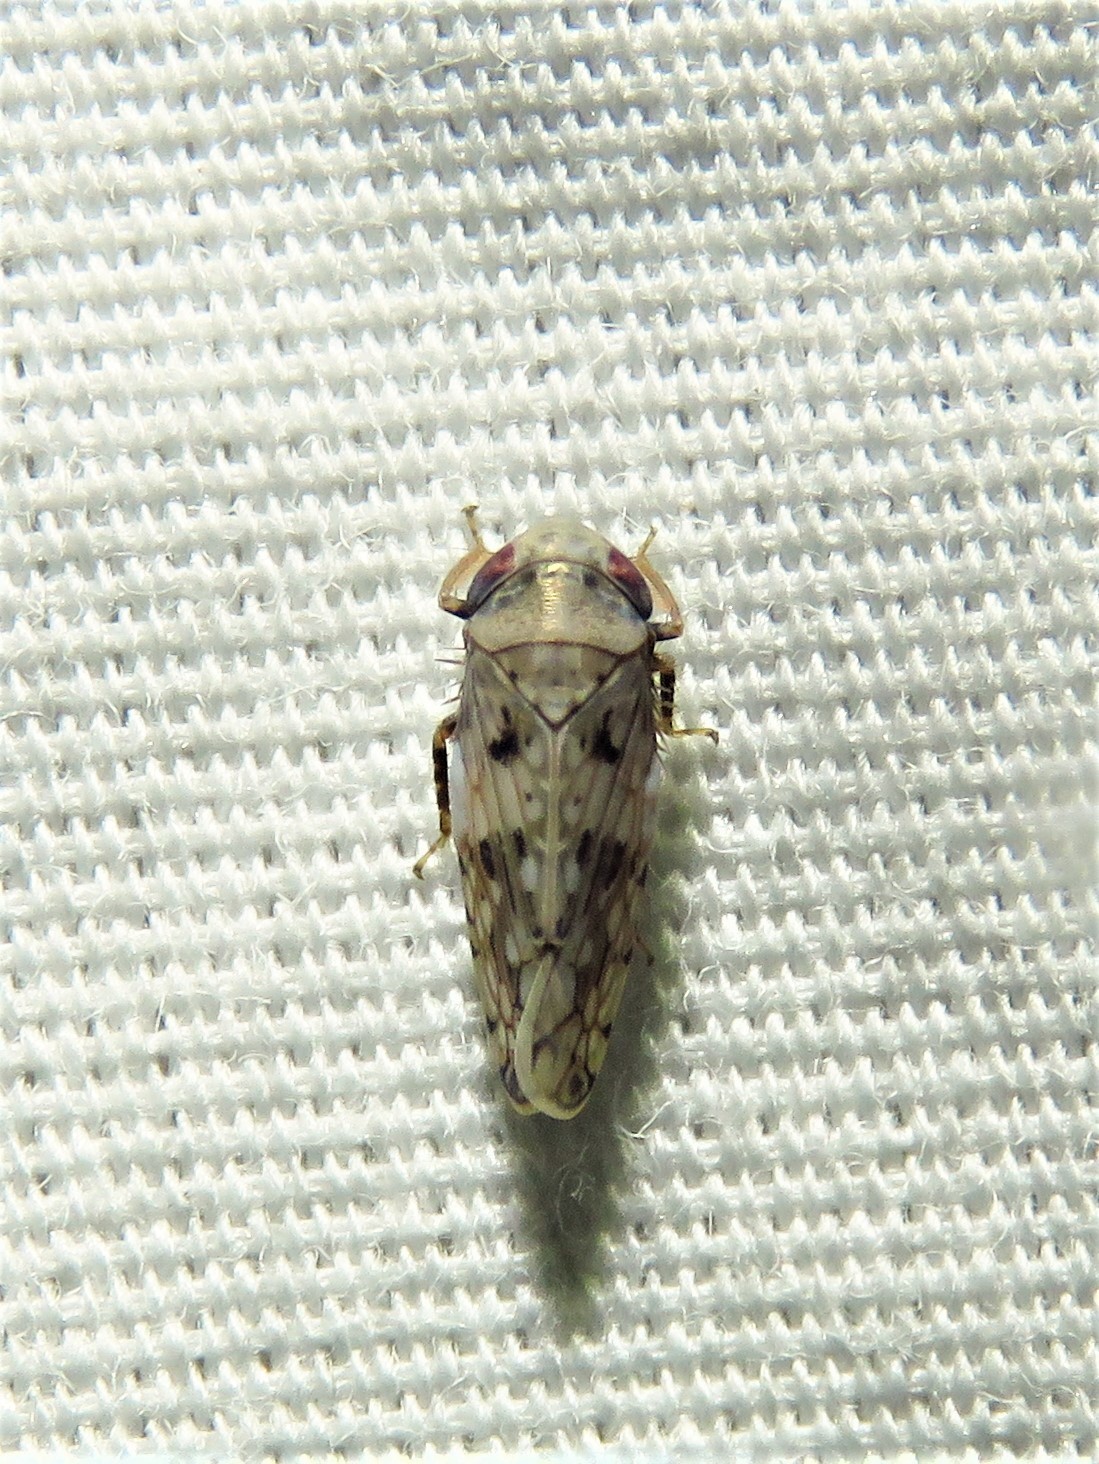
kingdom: Animalia
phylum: Arthropoda
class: Insecta
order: Hemiptera
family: Cicadellidae
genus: Menosoma
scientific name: Menosoma cinctum
